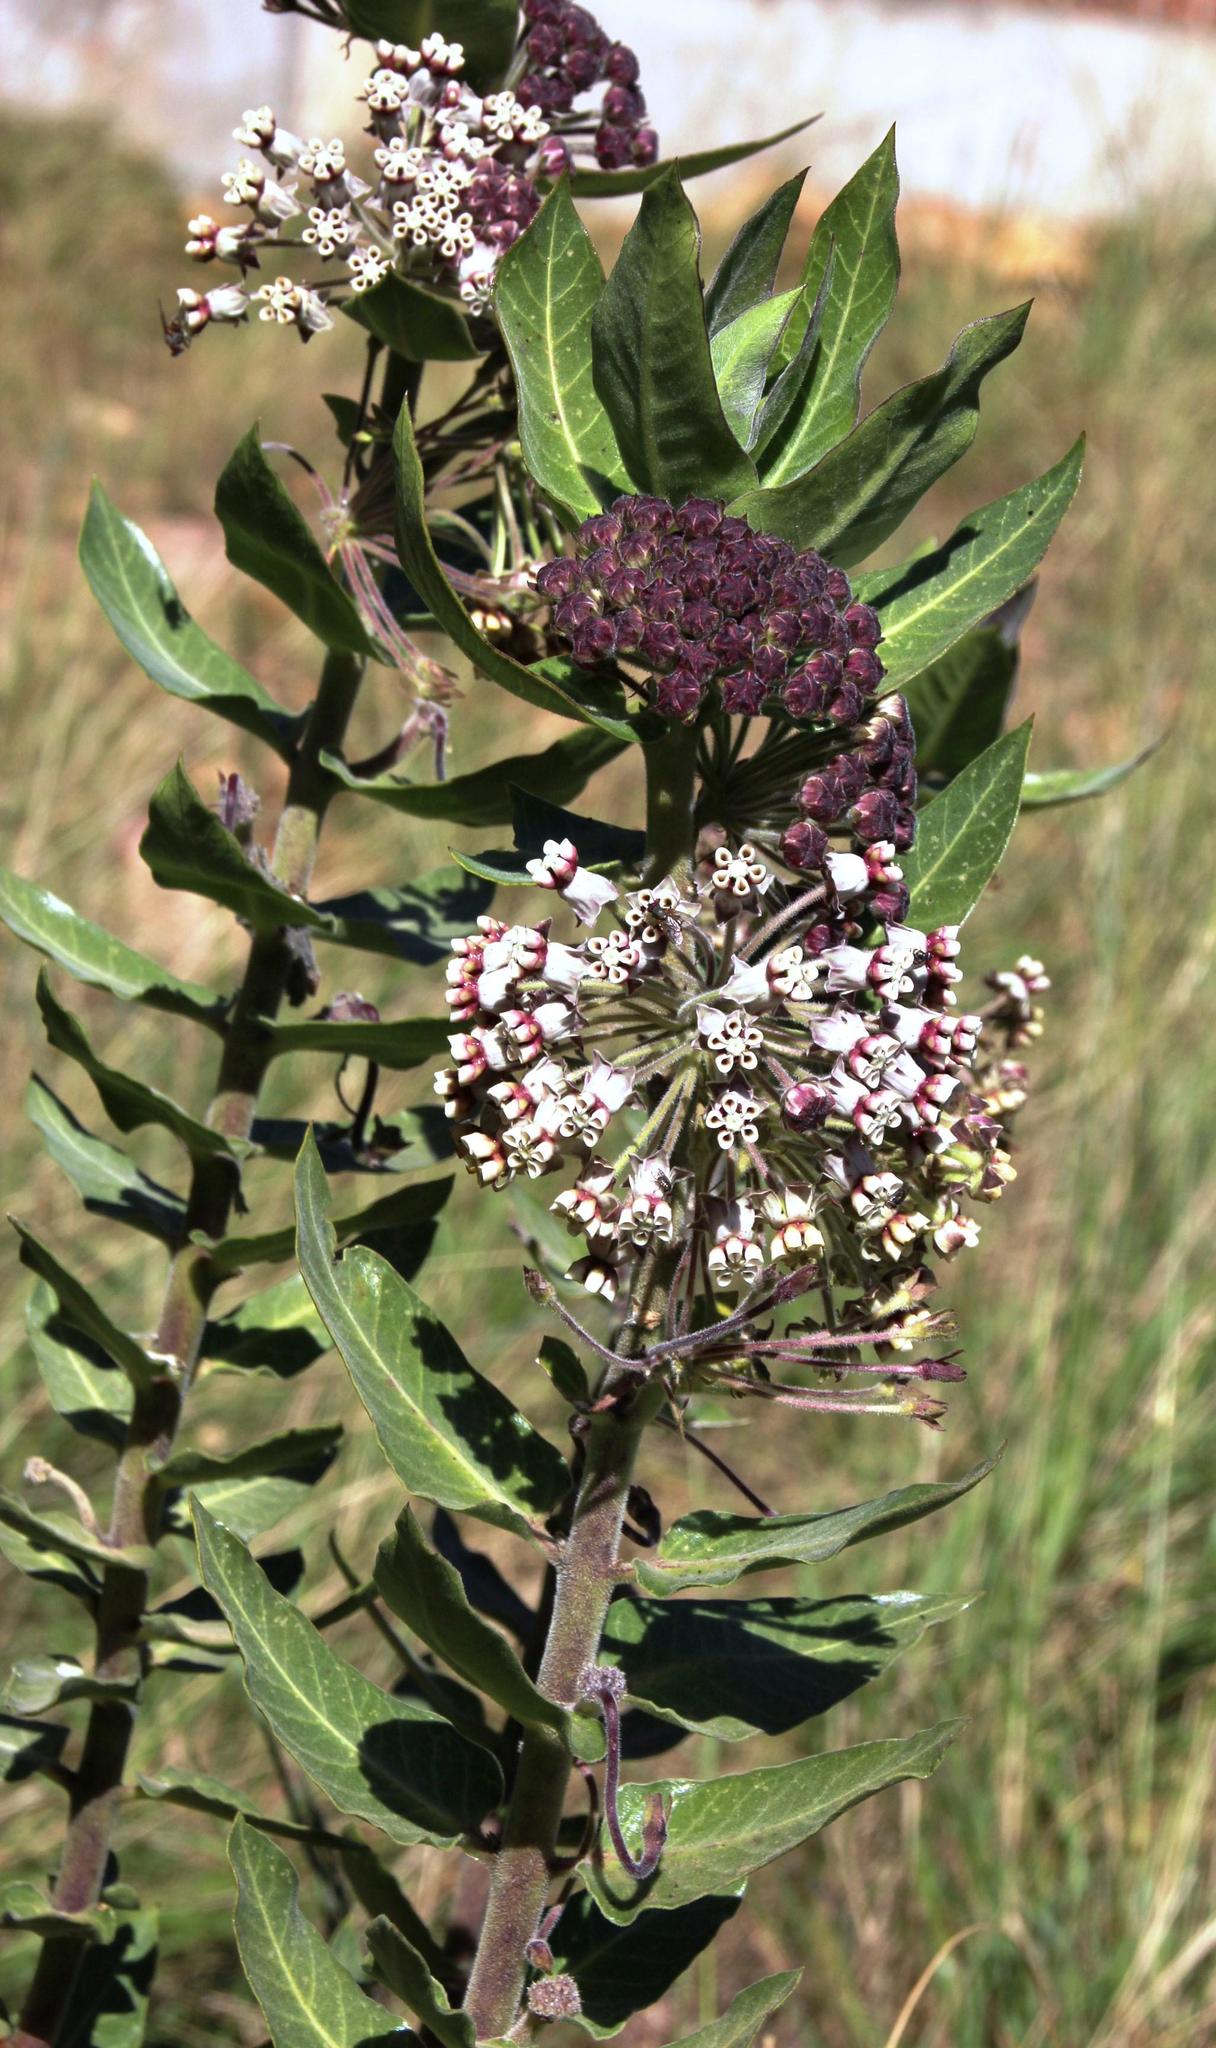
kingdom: Plantae
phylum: Tracheophyta
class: Magnoliopsida
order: Gentianales
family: Apocynaceae
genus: Gomphocarpus
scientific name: Gomphocarpus cancellatus
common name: Wild cotton
